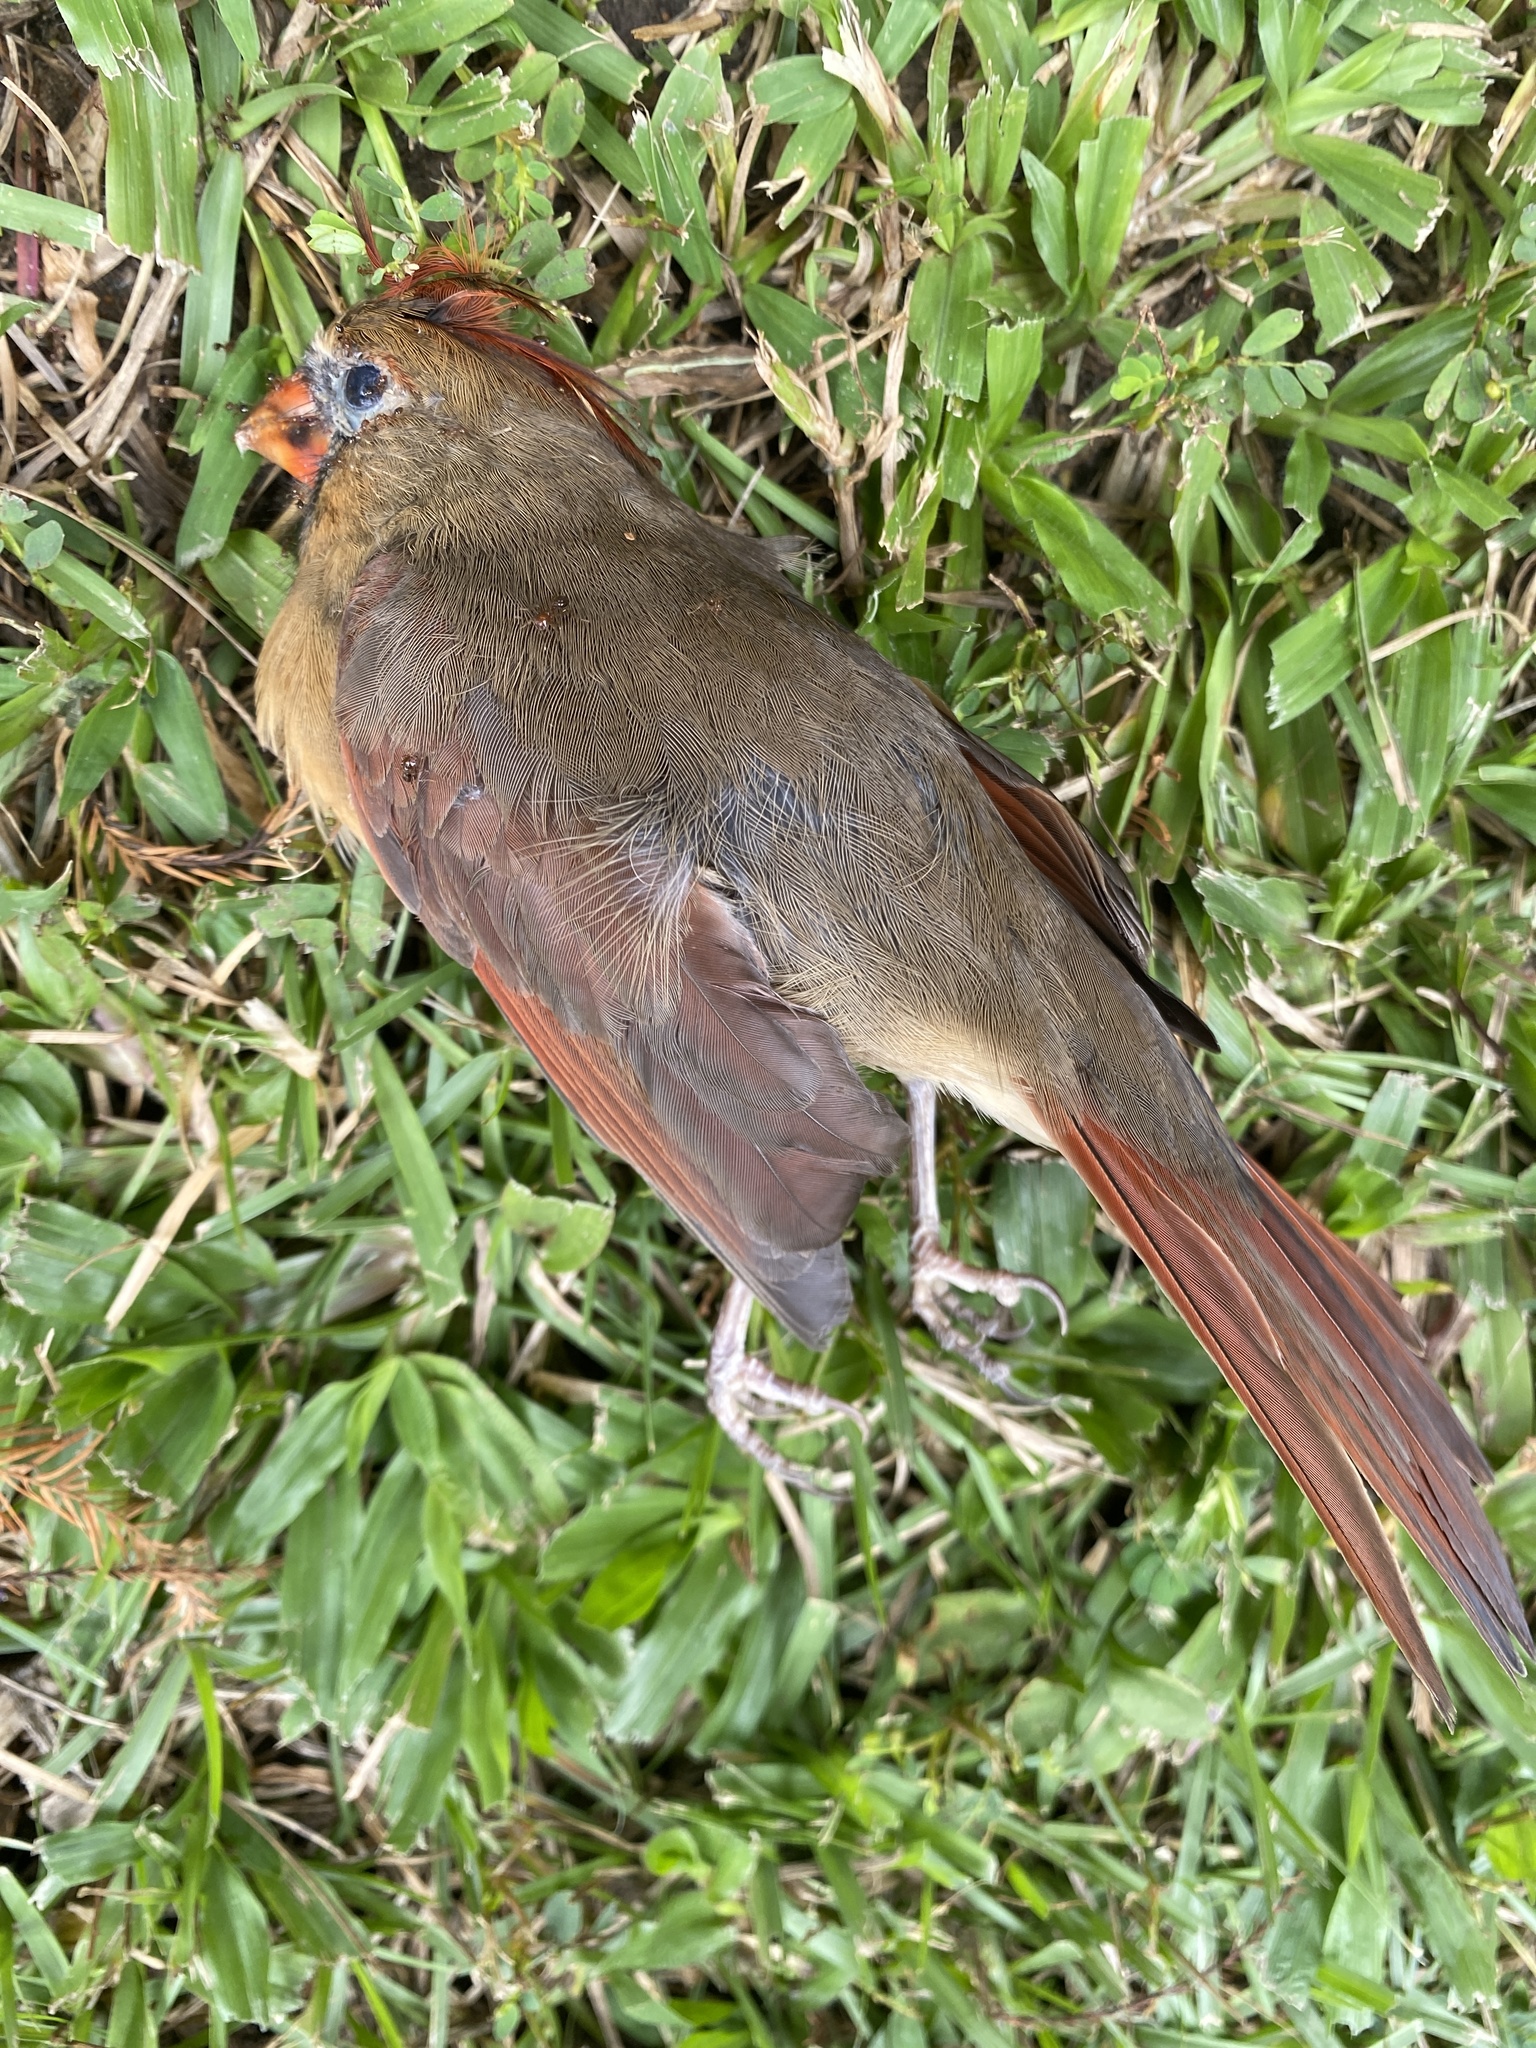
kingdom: Animalia
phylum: Chordata
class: Aves
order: Passeriformes
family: Cardinalidae
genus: Cardinalis
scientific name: Cardinalis cardinalis
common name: Northern cardinal
